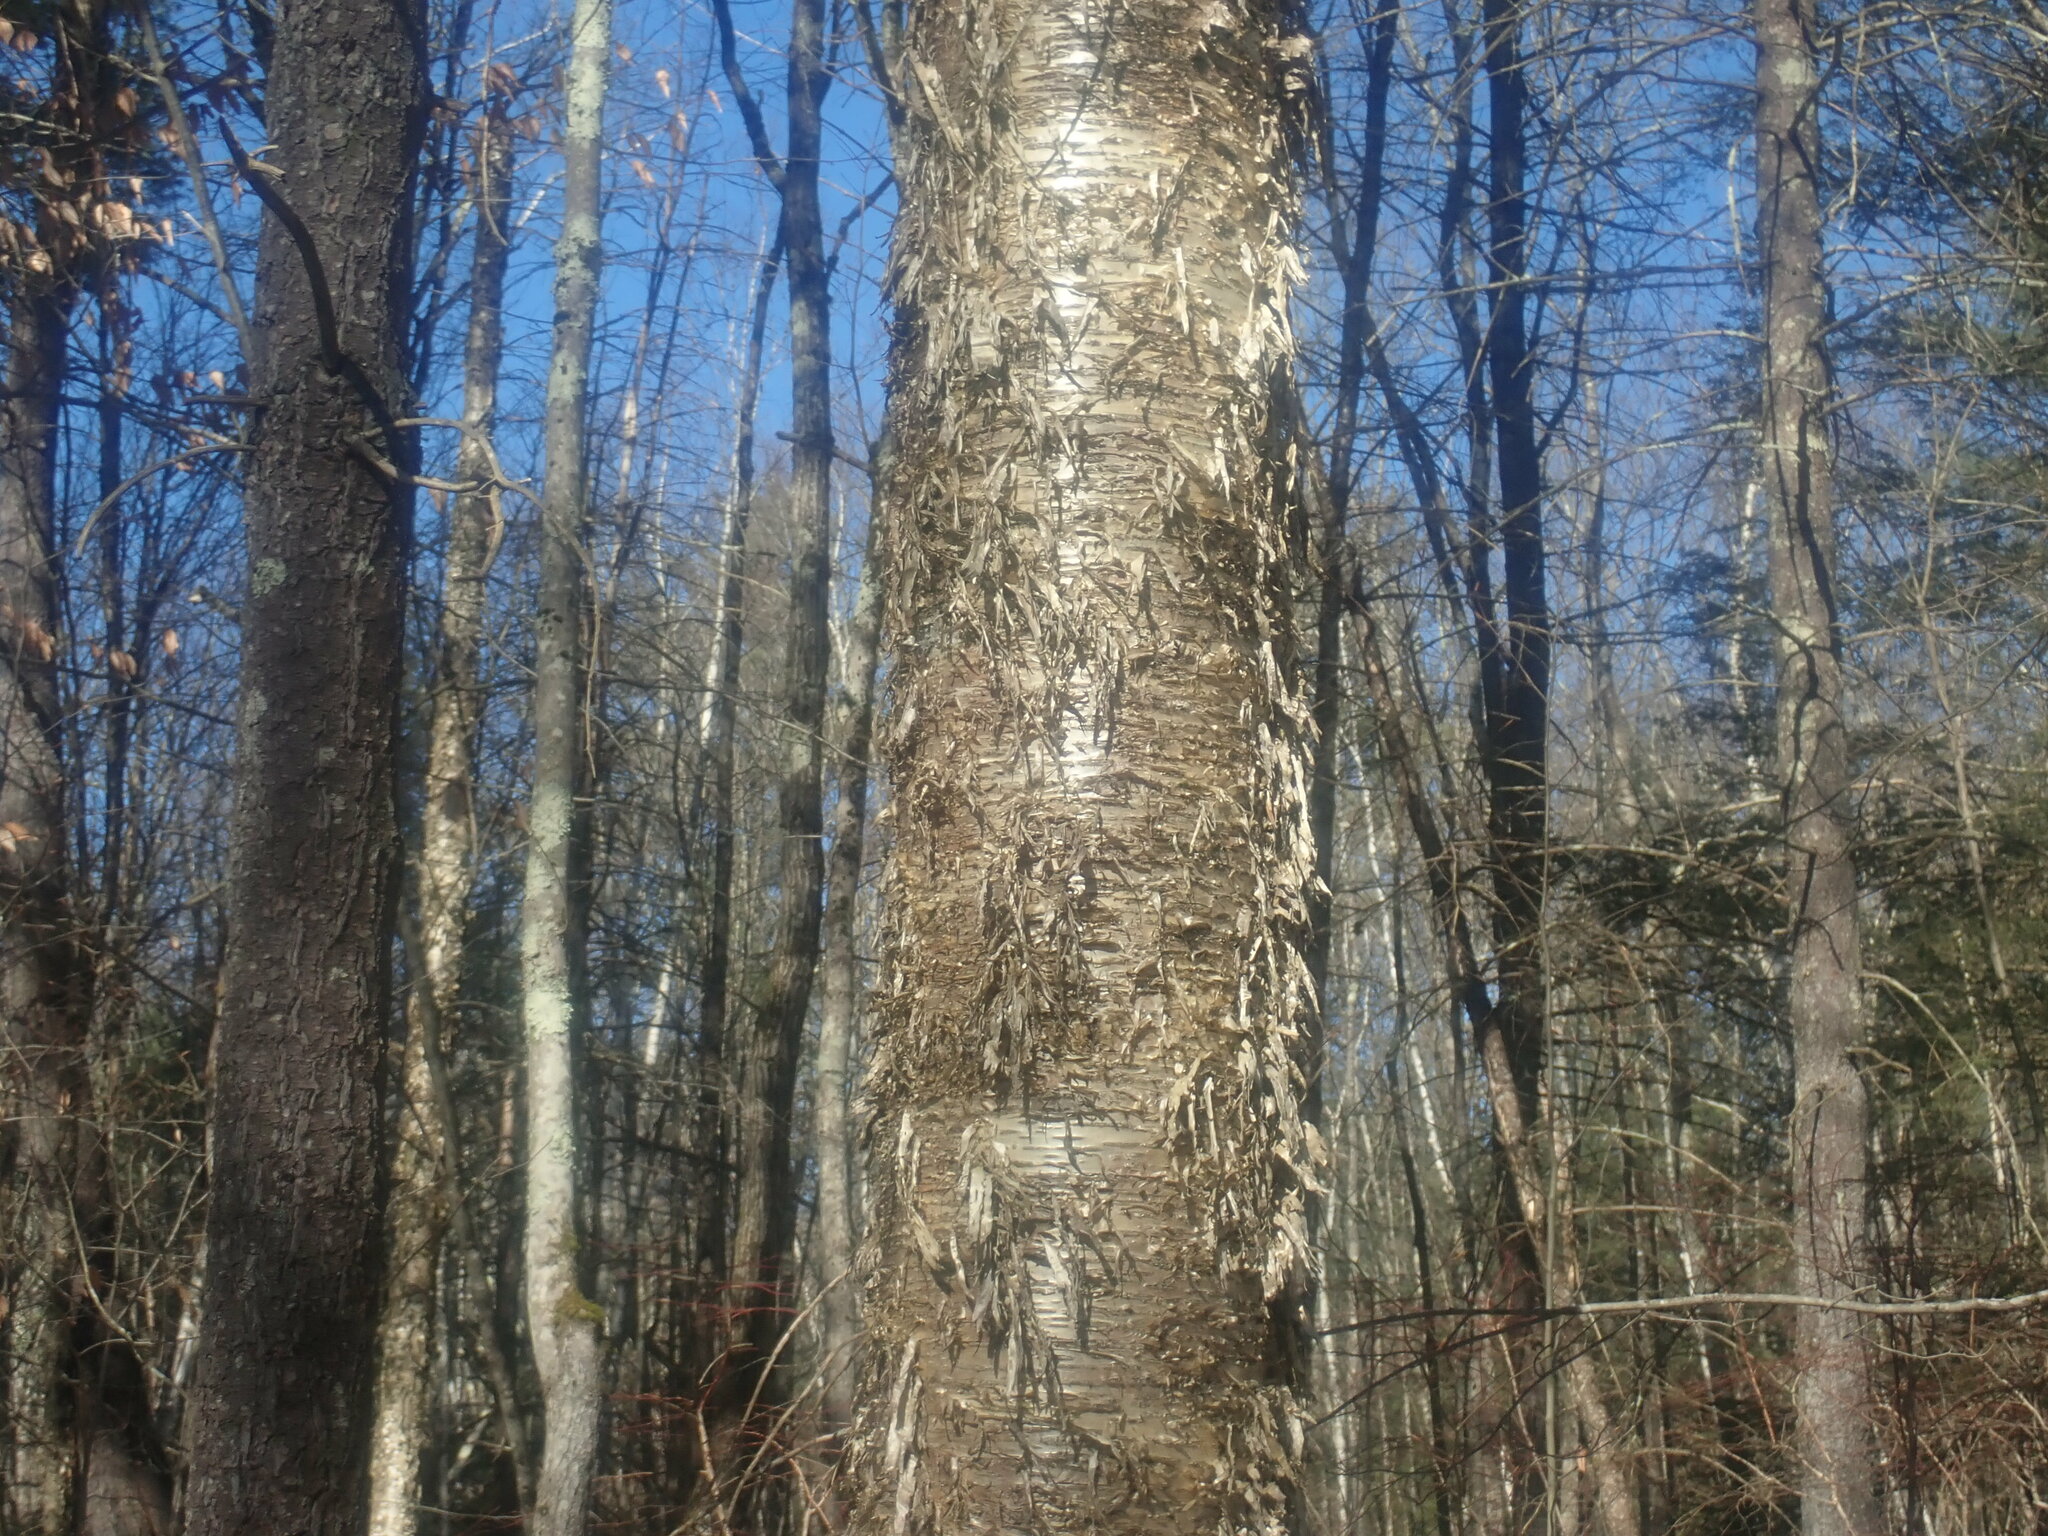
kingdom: Plantae
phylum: Tracheophyta
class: Magnoliopsida
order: Fagales
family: Betulaceae
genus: Betula
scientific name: Betula alleghaniensis
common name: Yellow birch
